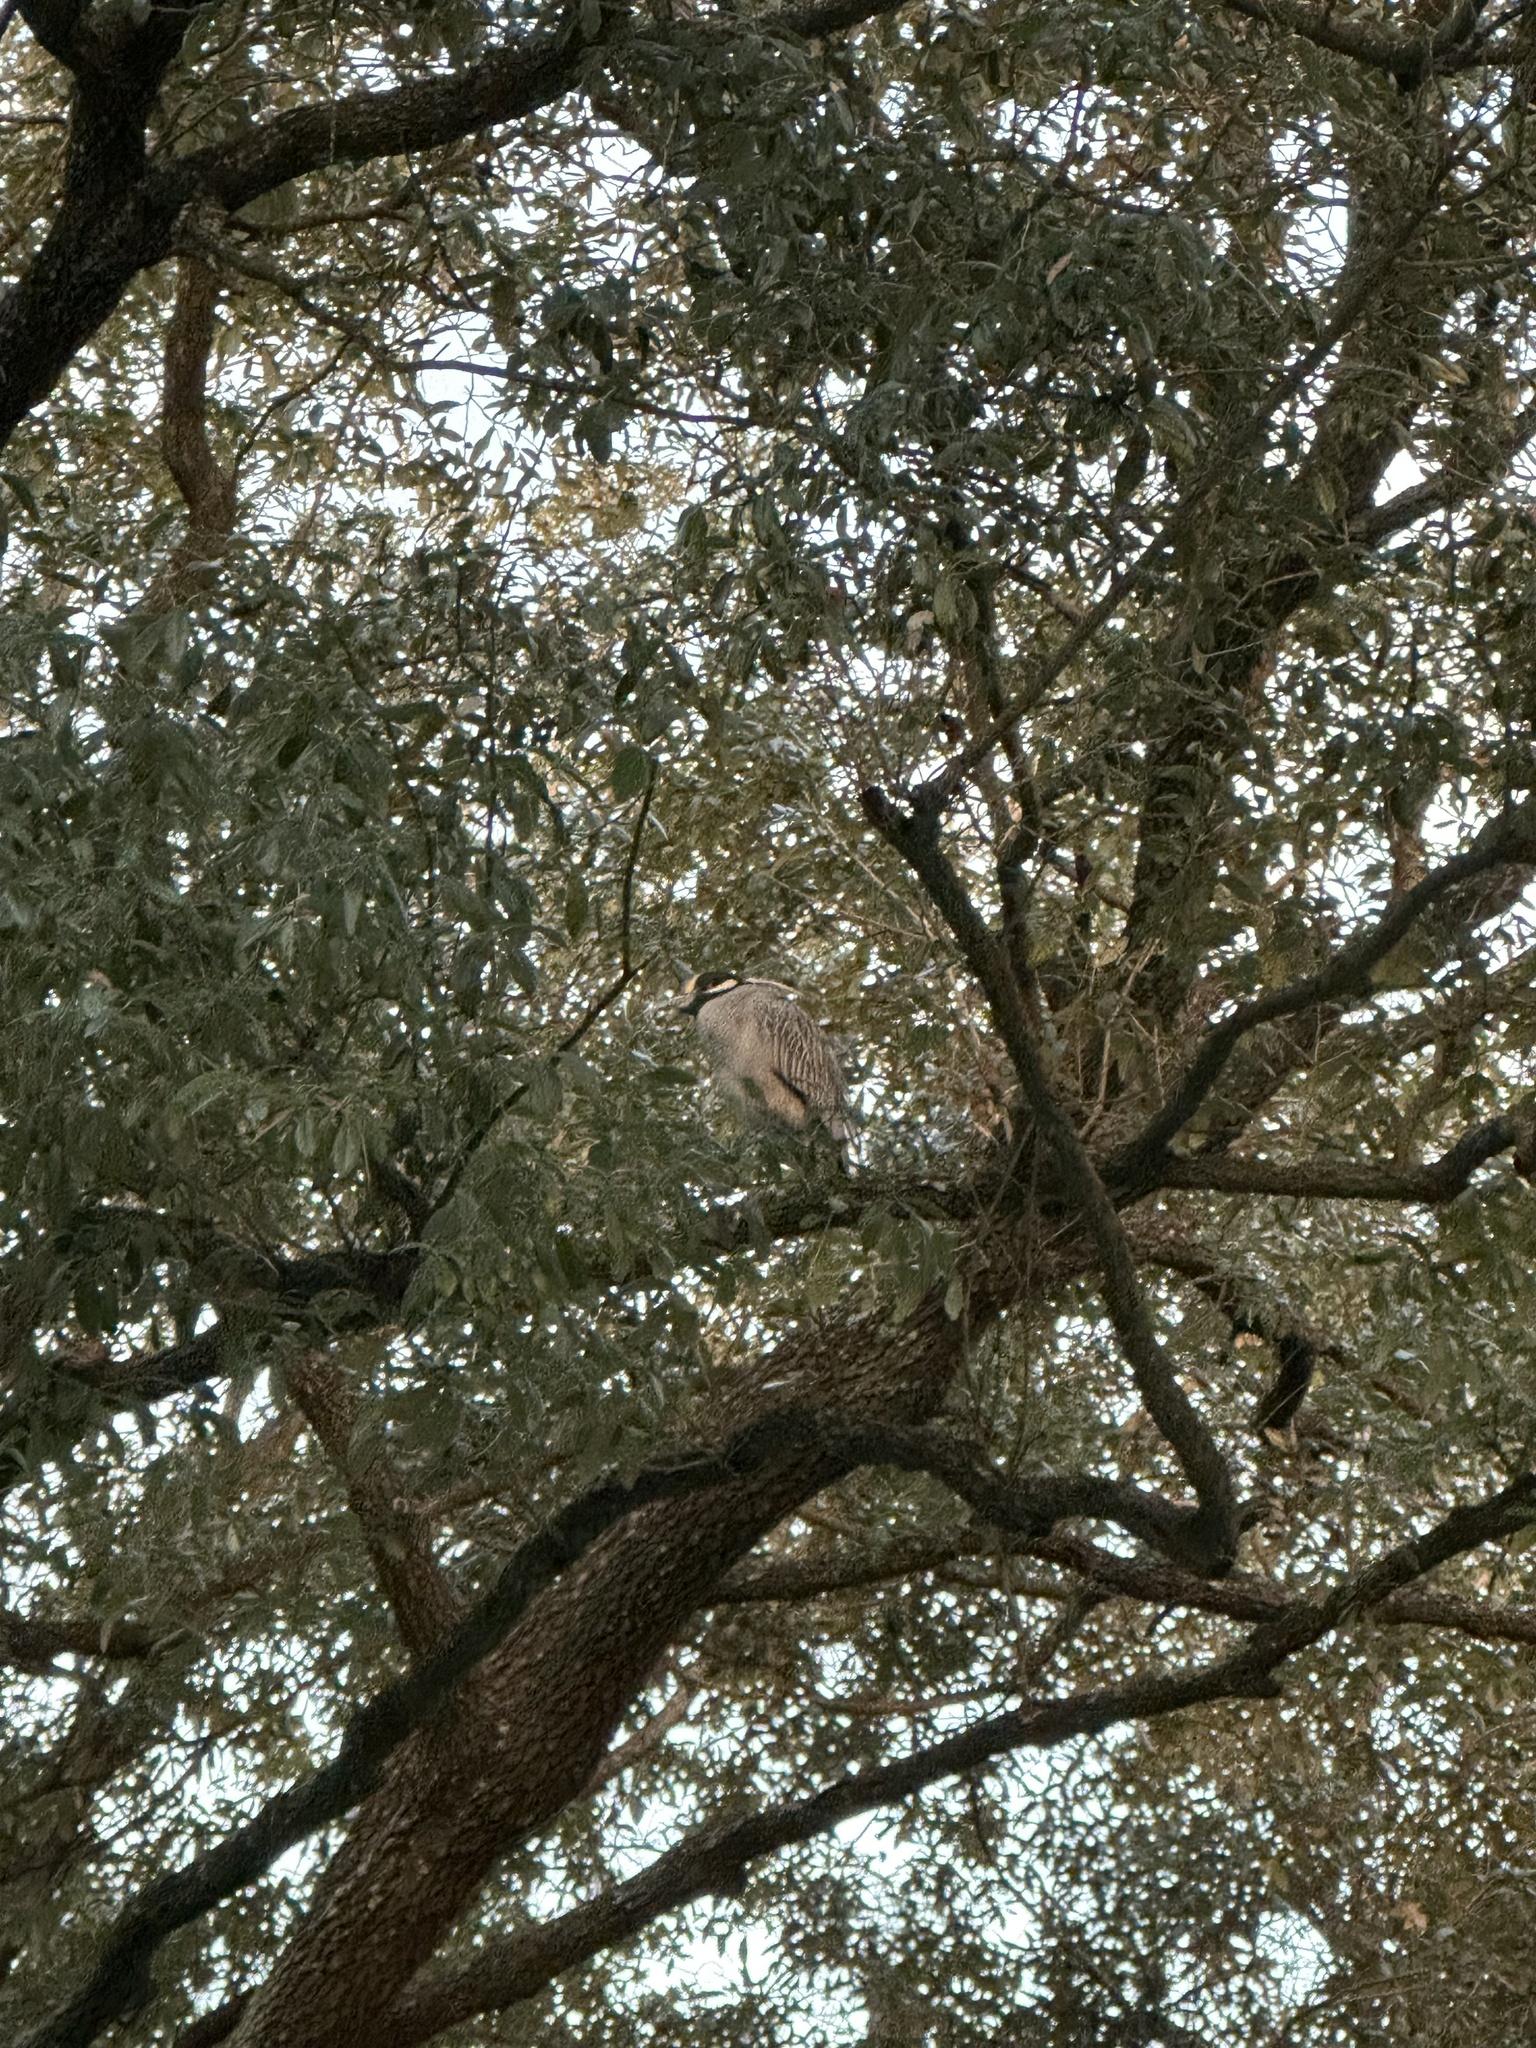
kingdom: Animalia
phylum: Chordata
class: Aves
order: Pelecaniformes
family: Ardeidae
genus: Nyctanassa
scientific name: Nyctanassa violacea
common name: Yellow-crowned night heron
